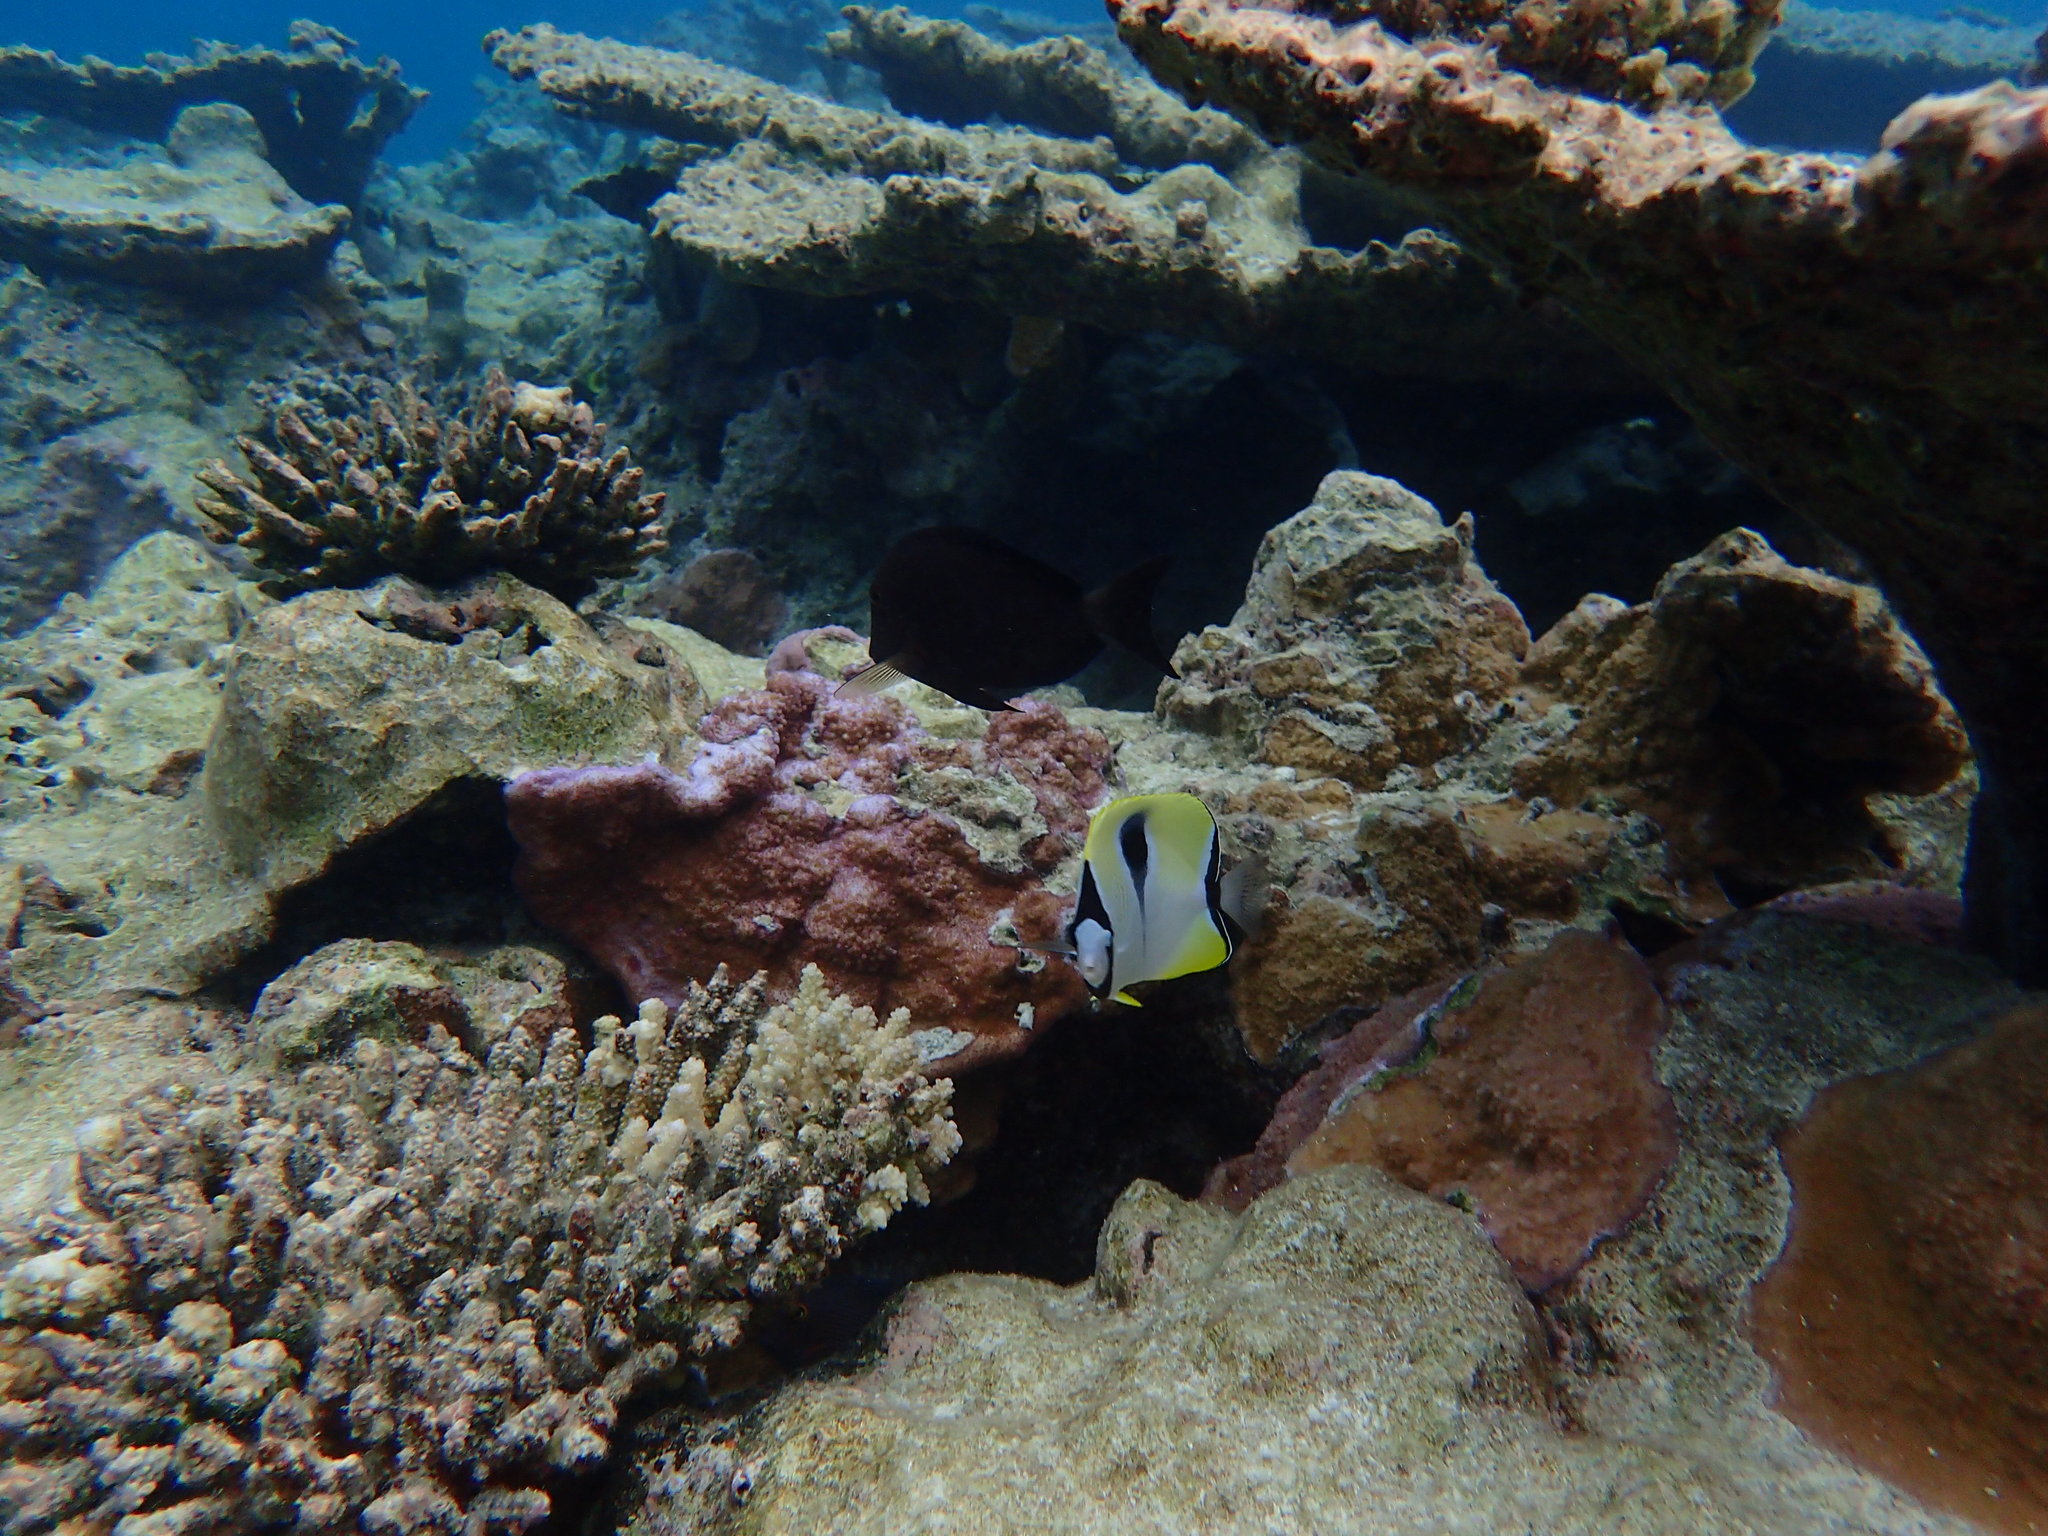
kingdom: Animalia
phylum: Chordata
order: Perciformes
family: Chaetodontidae
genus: Chaetodon
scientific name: Chaetodon unimaculatus
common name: Teardrop butterflyfish
